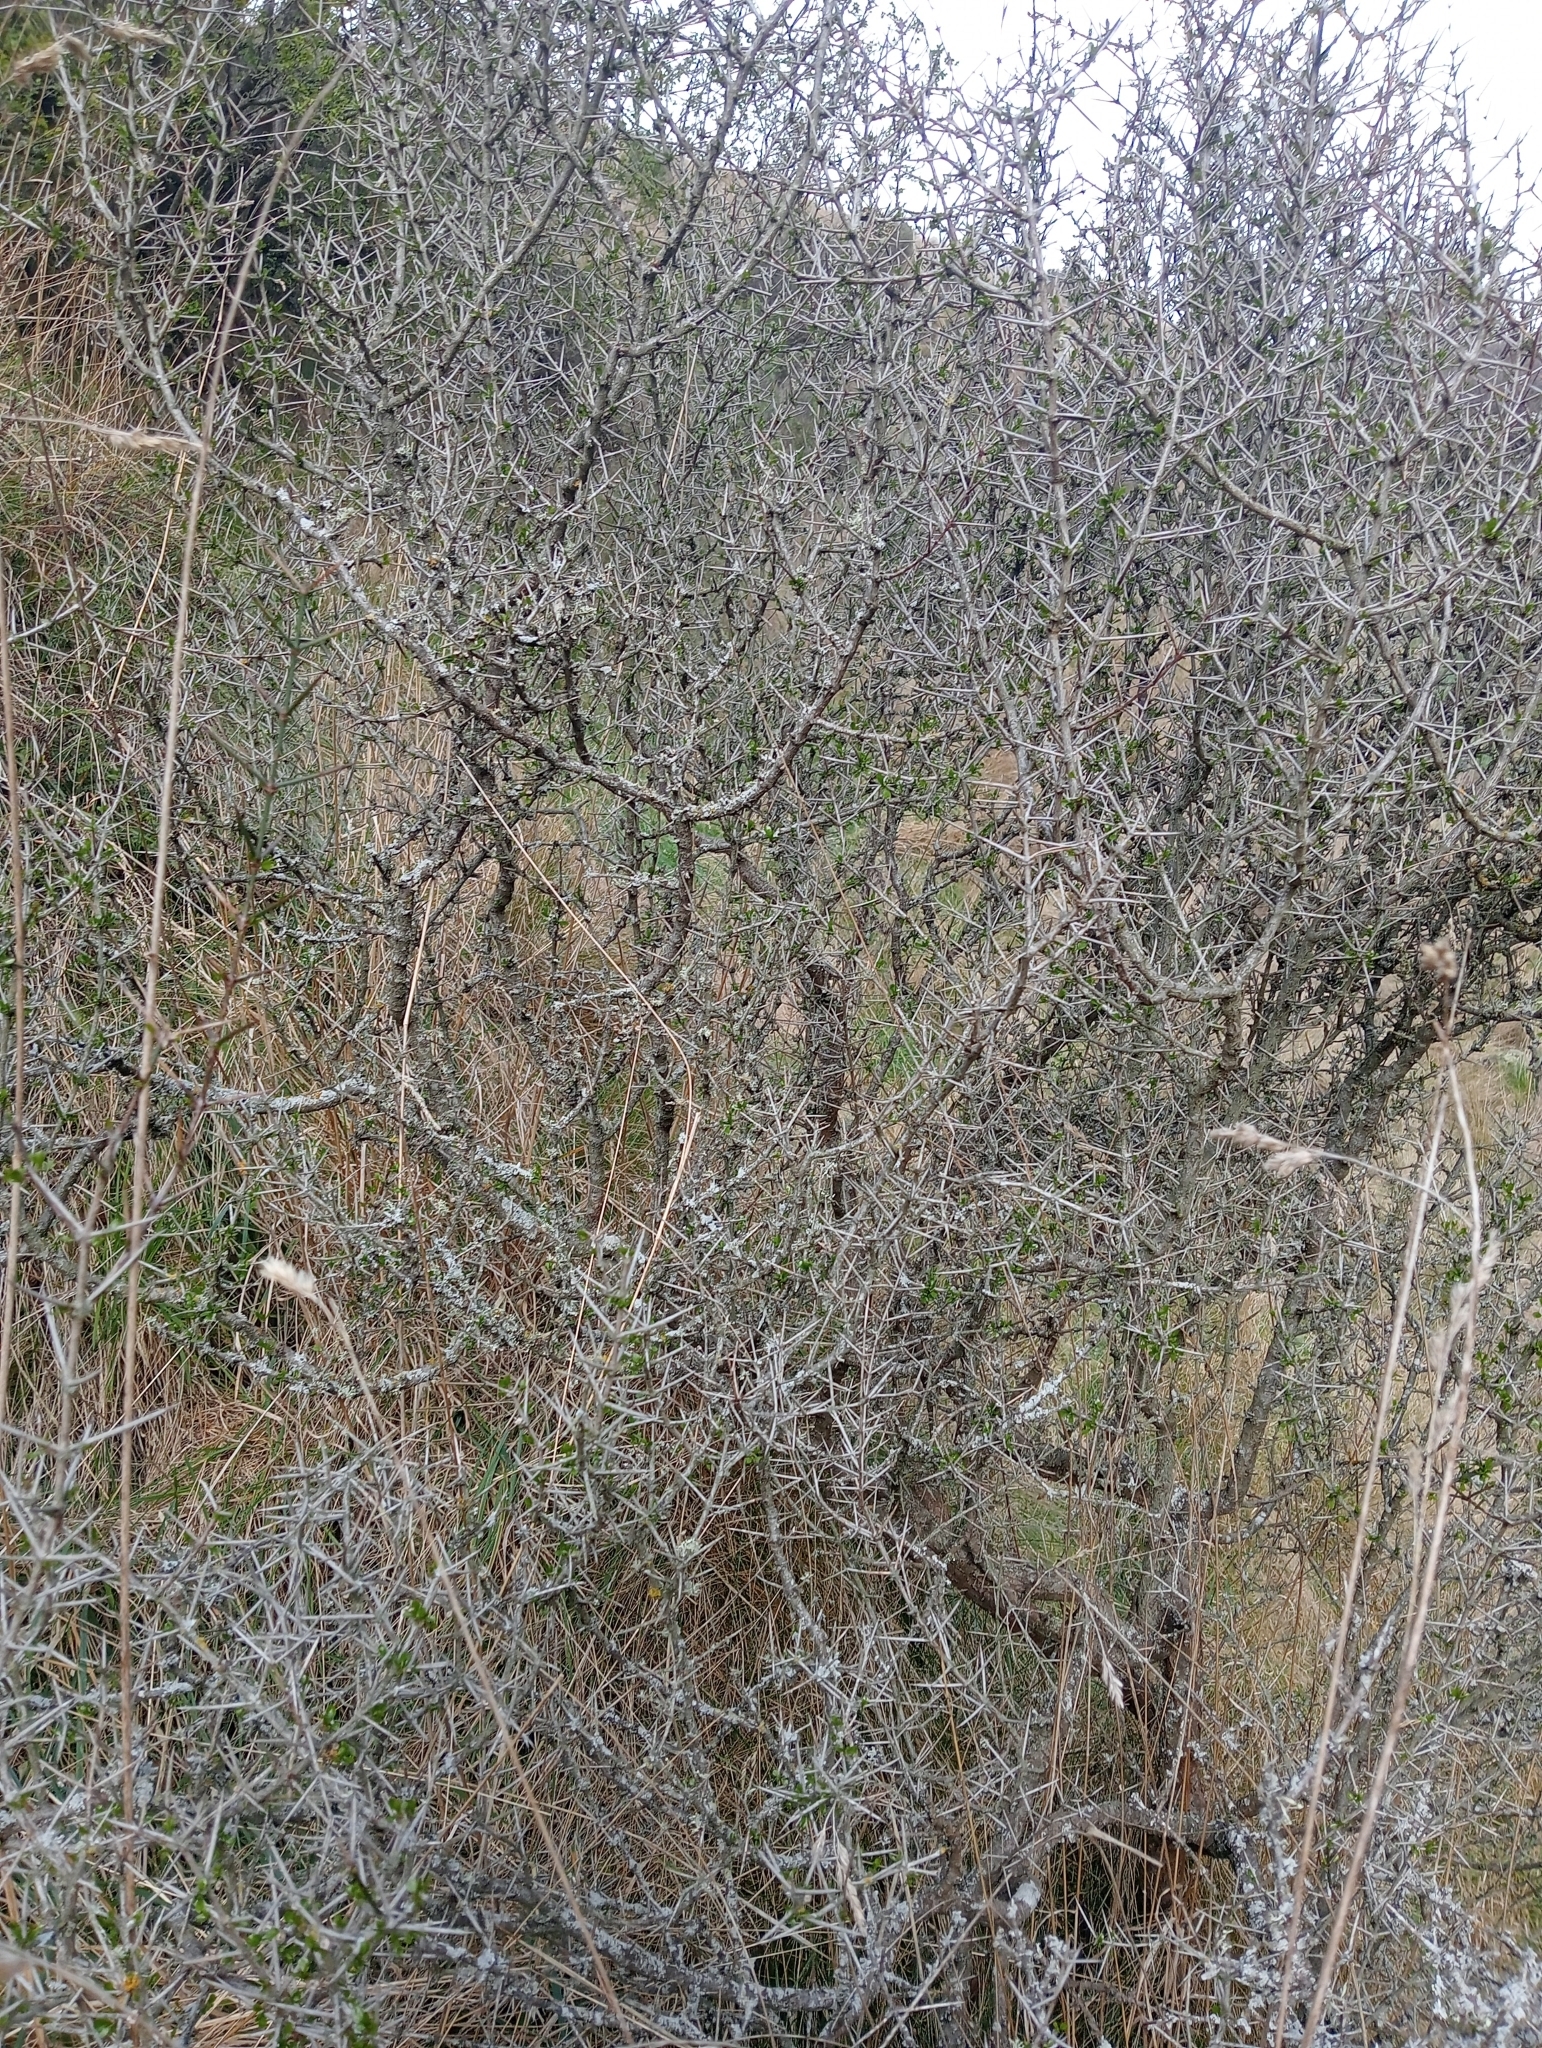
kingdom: Plantae
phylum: Tracheophyta
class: Magnoliopsida
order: Rosales
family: Rhamnaceae
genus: Discaria
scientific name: Discaria toumatou
